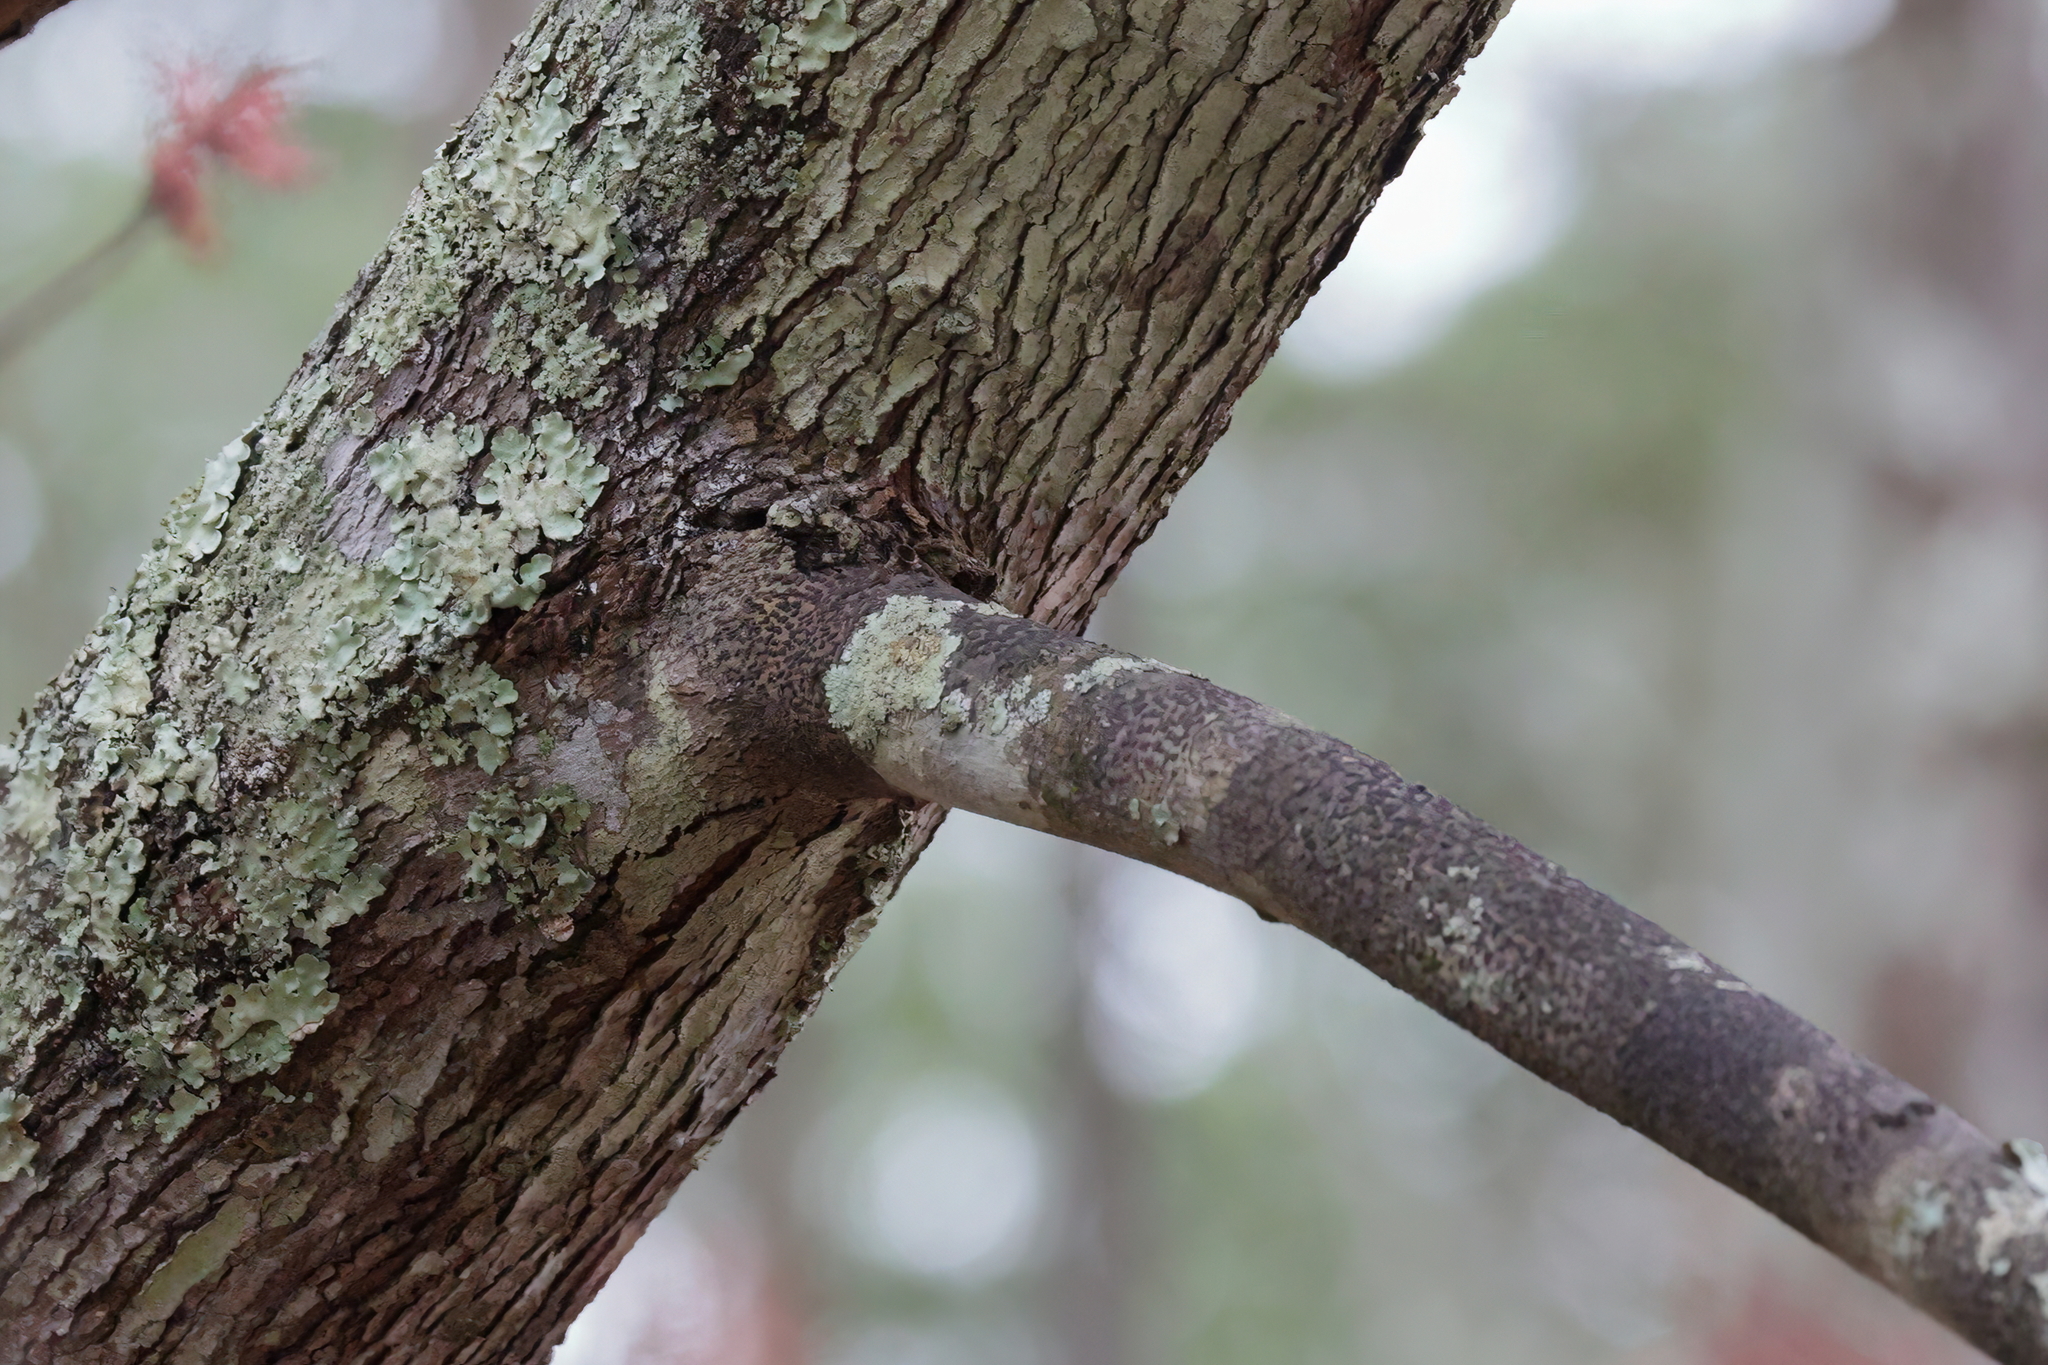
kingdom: Plantae
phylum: Tracheophyta
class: Magnoliopsida
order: Sapindales
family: Sapindaceae
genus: Acer
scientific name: Acer rubrum
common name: Red maple
